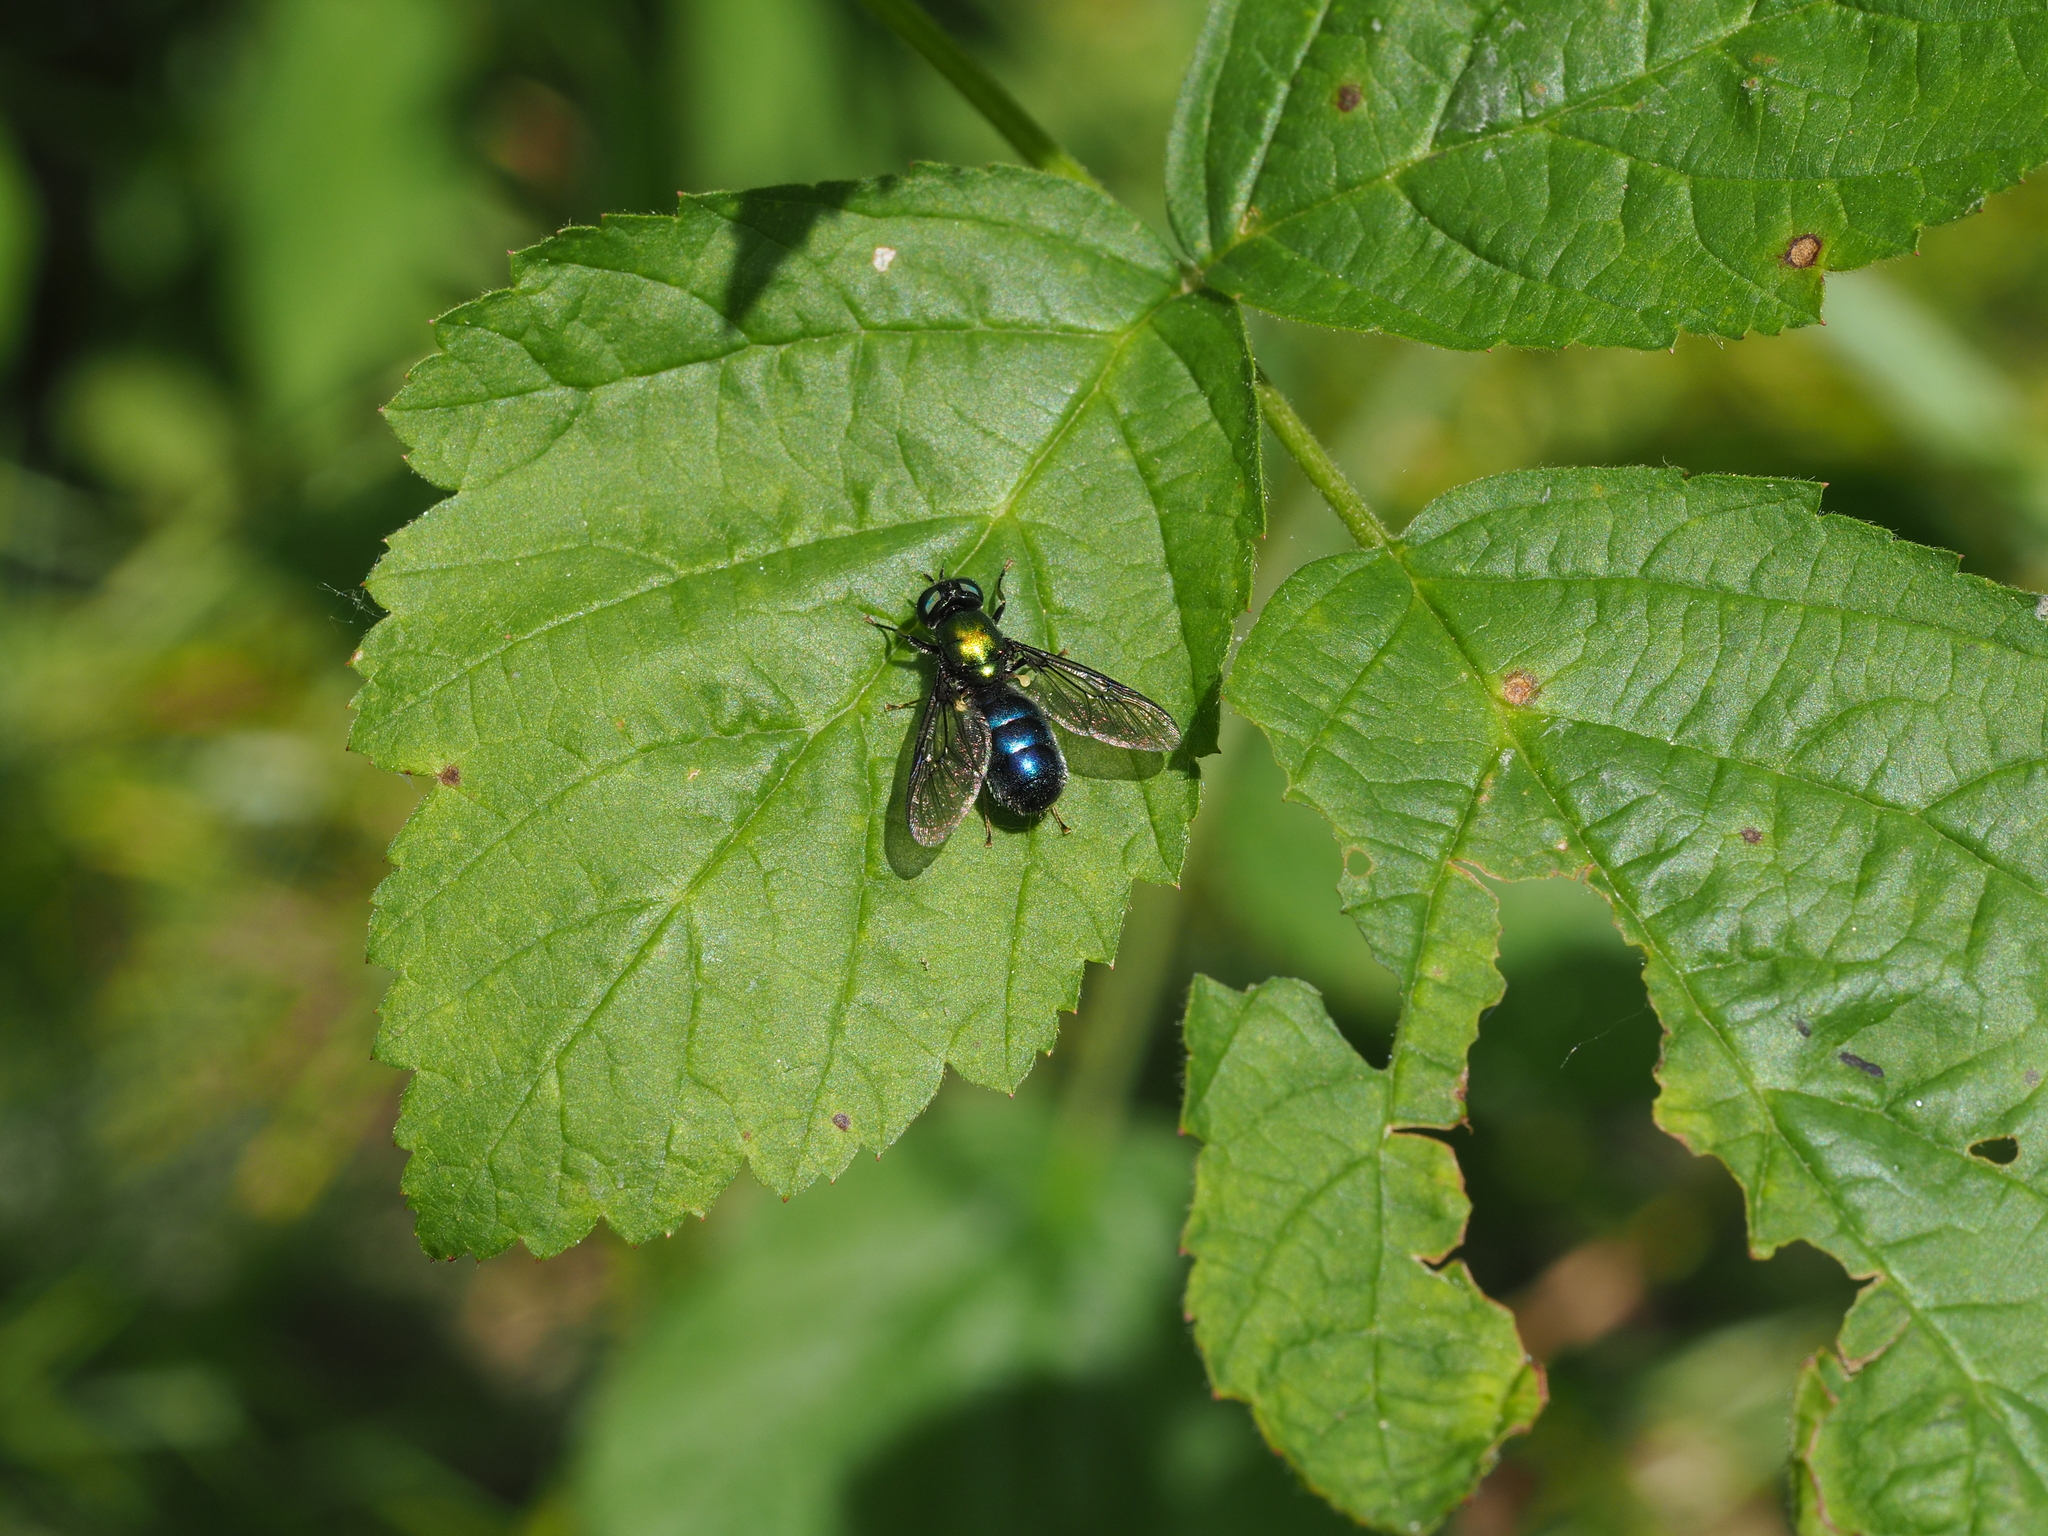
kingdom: Animalia
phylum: Arthropoda
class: Insecta
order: Diptera
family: Stratiomyidae
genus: Chloromyia
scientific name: Chloromyia formosa
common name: Soldier fly
